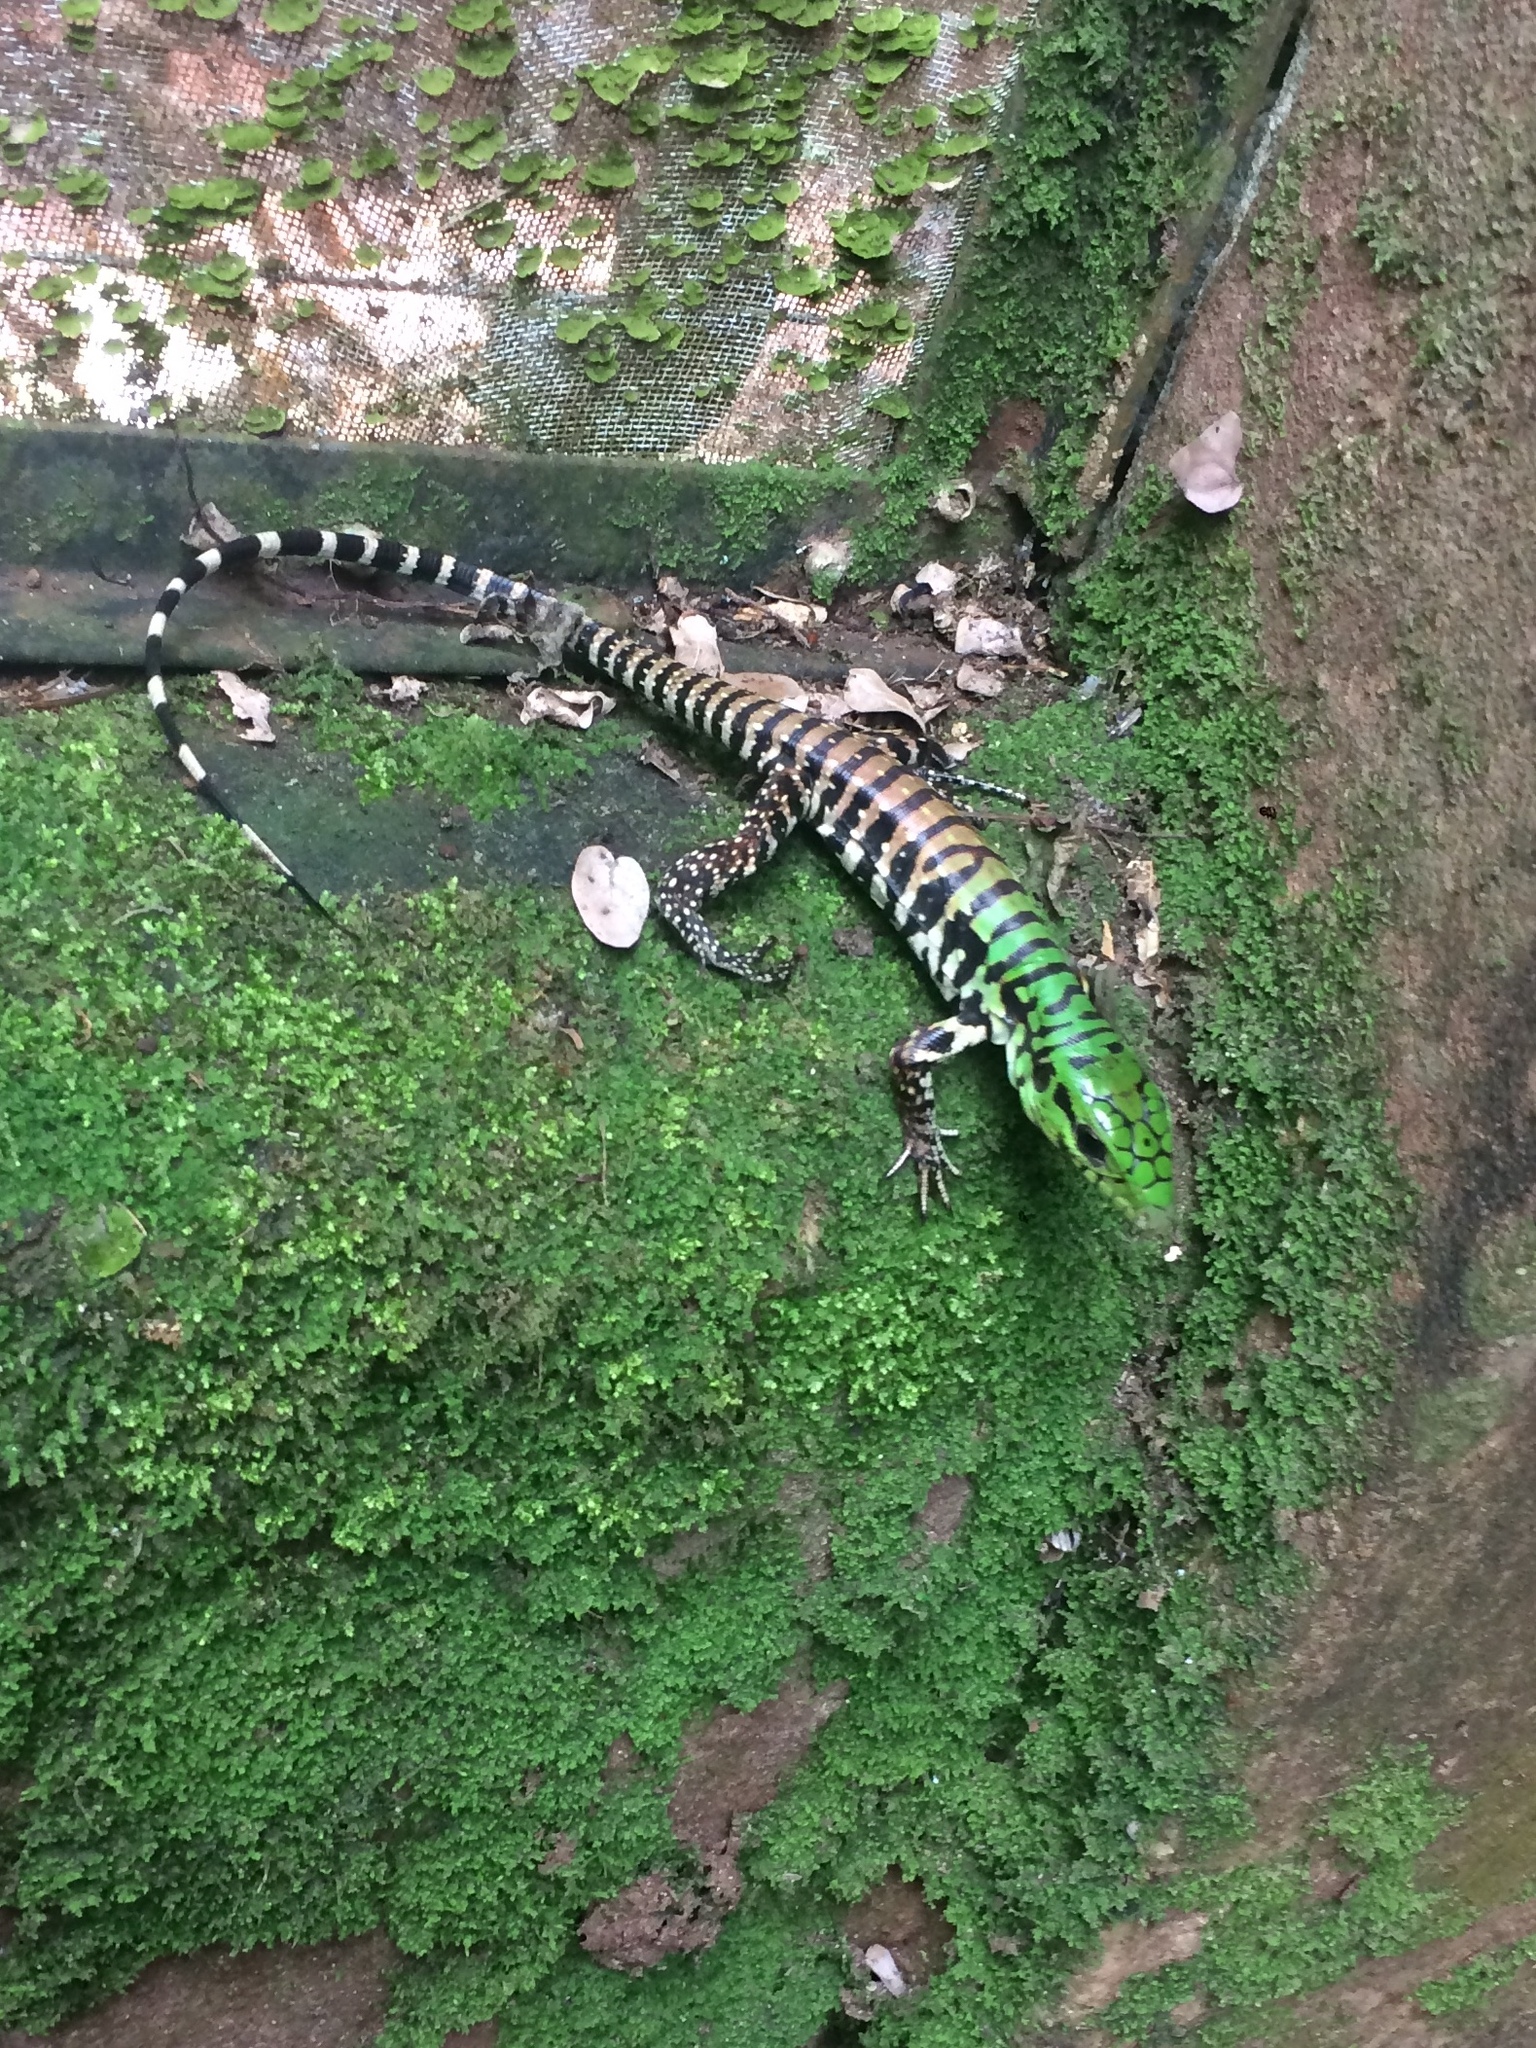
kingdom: Animalia
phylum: Chordata
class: Squamata
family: Teiidae
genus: Salvator
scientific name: Salvator merianae
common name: Argentine black and white tegu
